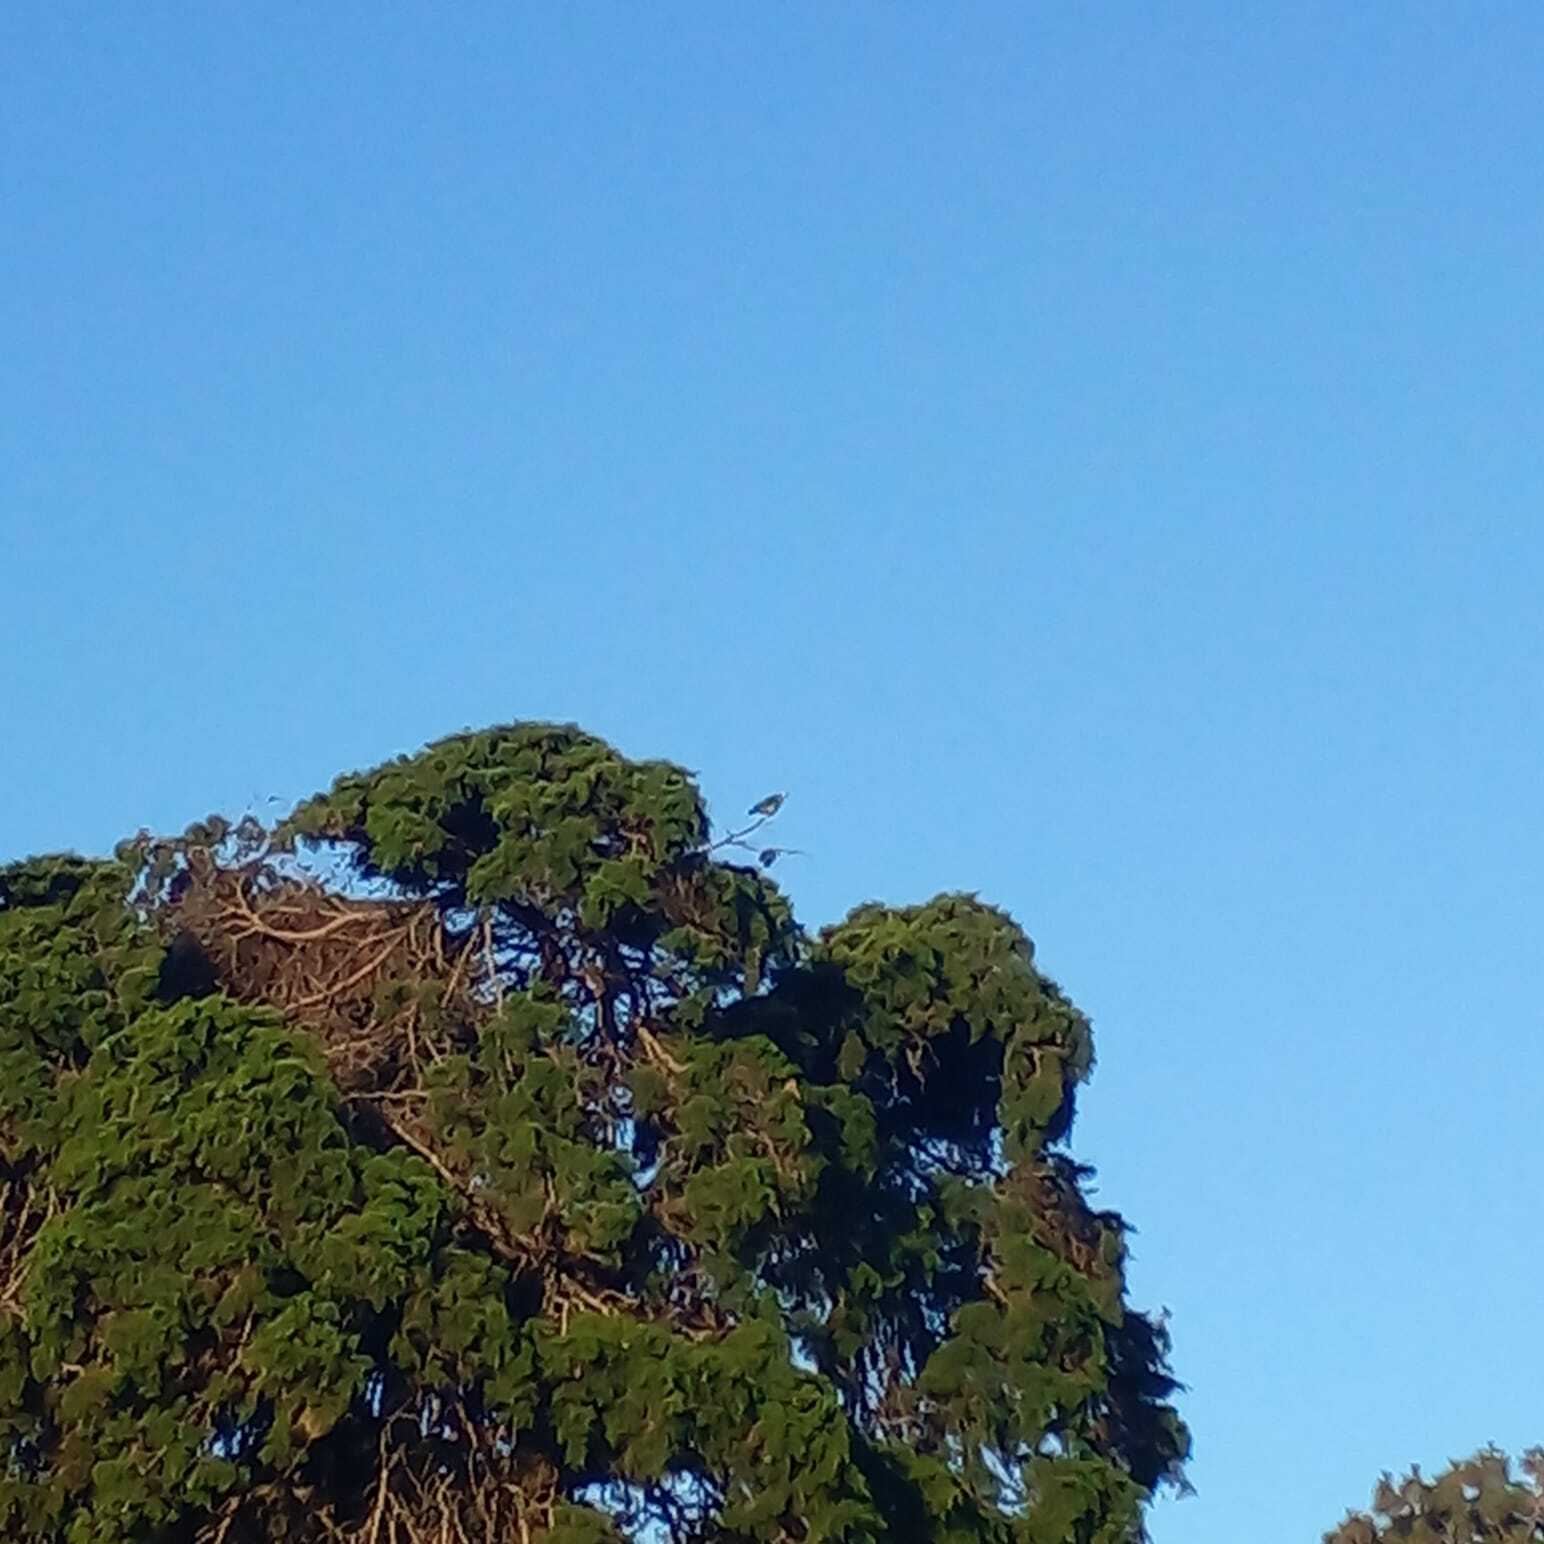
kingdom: Animalia
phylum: Chordata
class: Aves
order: Psittaciformes
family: Psittacidae
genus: Amazona
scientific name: Amazona aestiva
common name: Turquoise-fronted amazon
